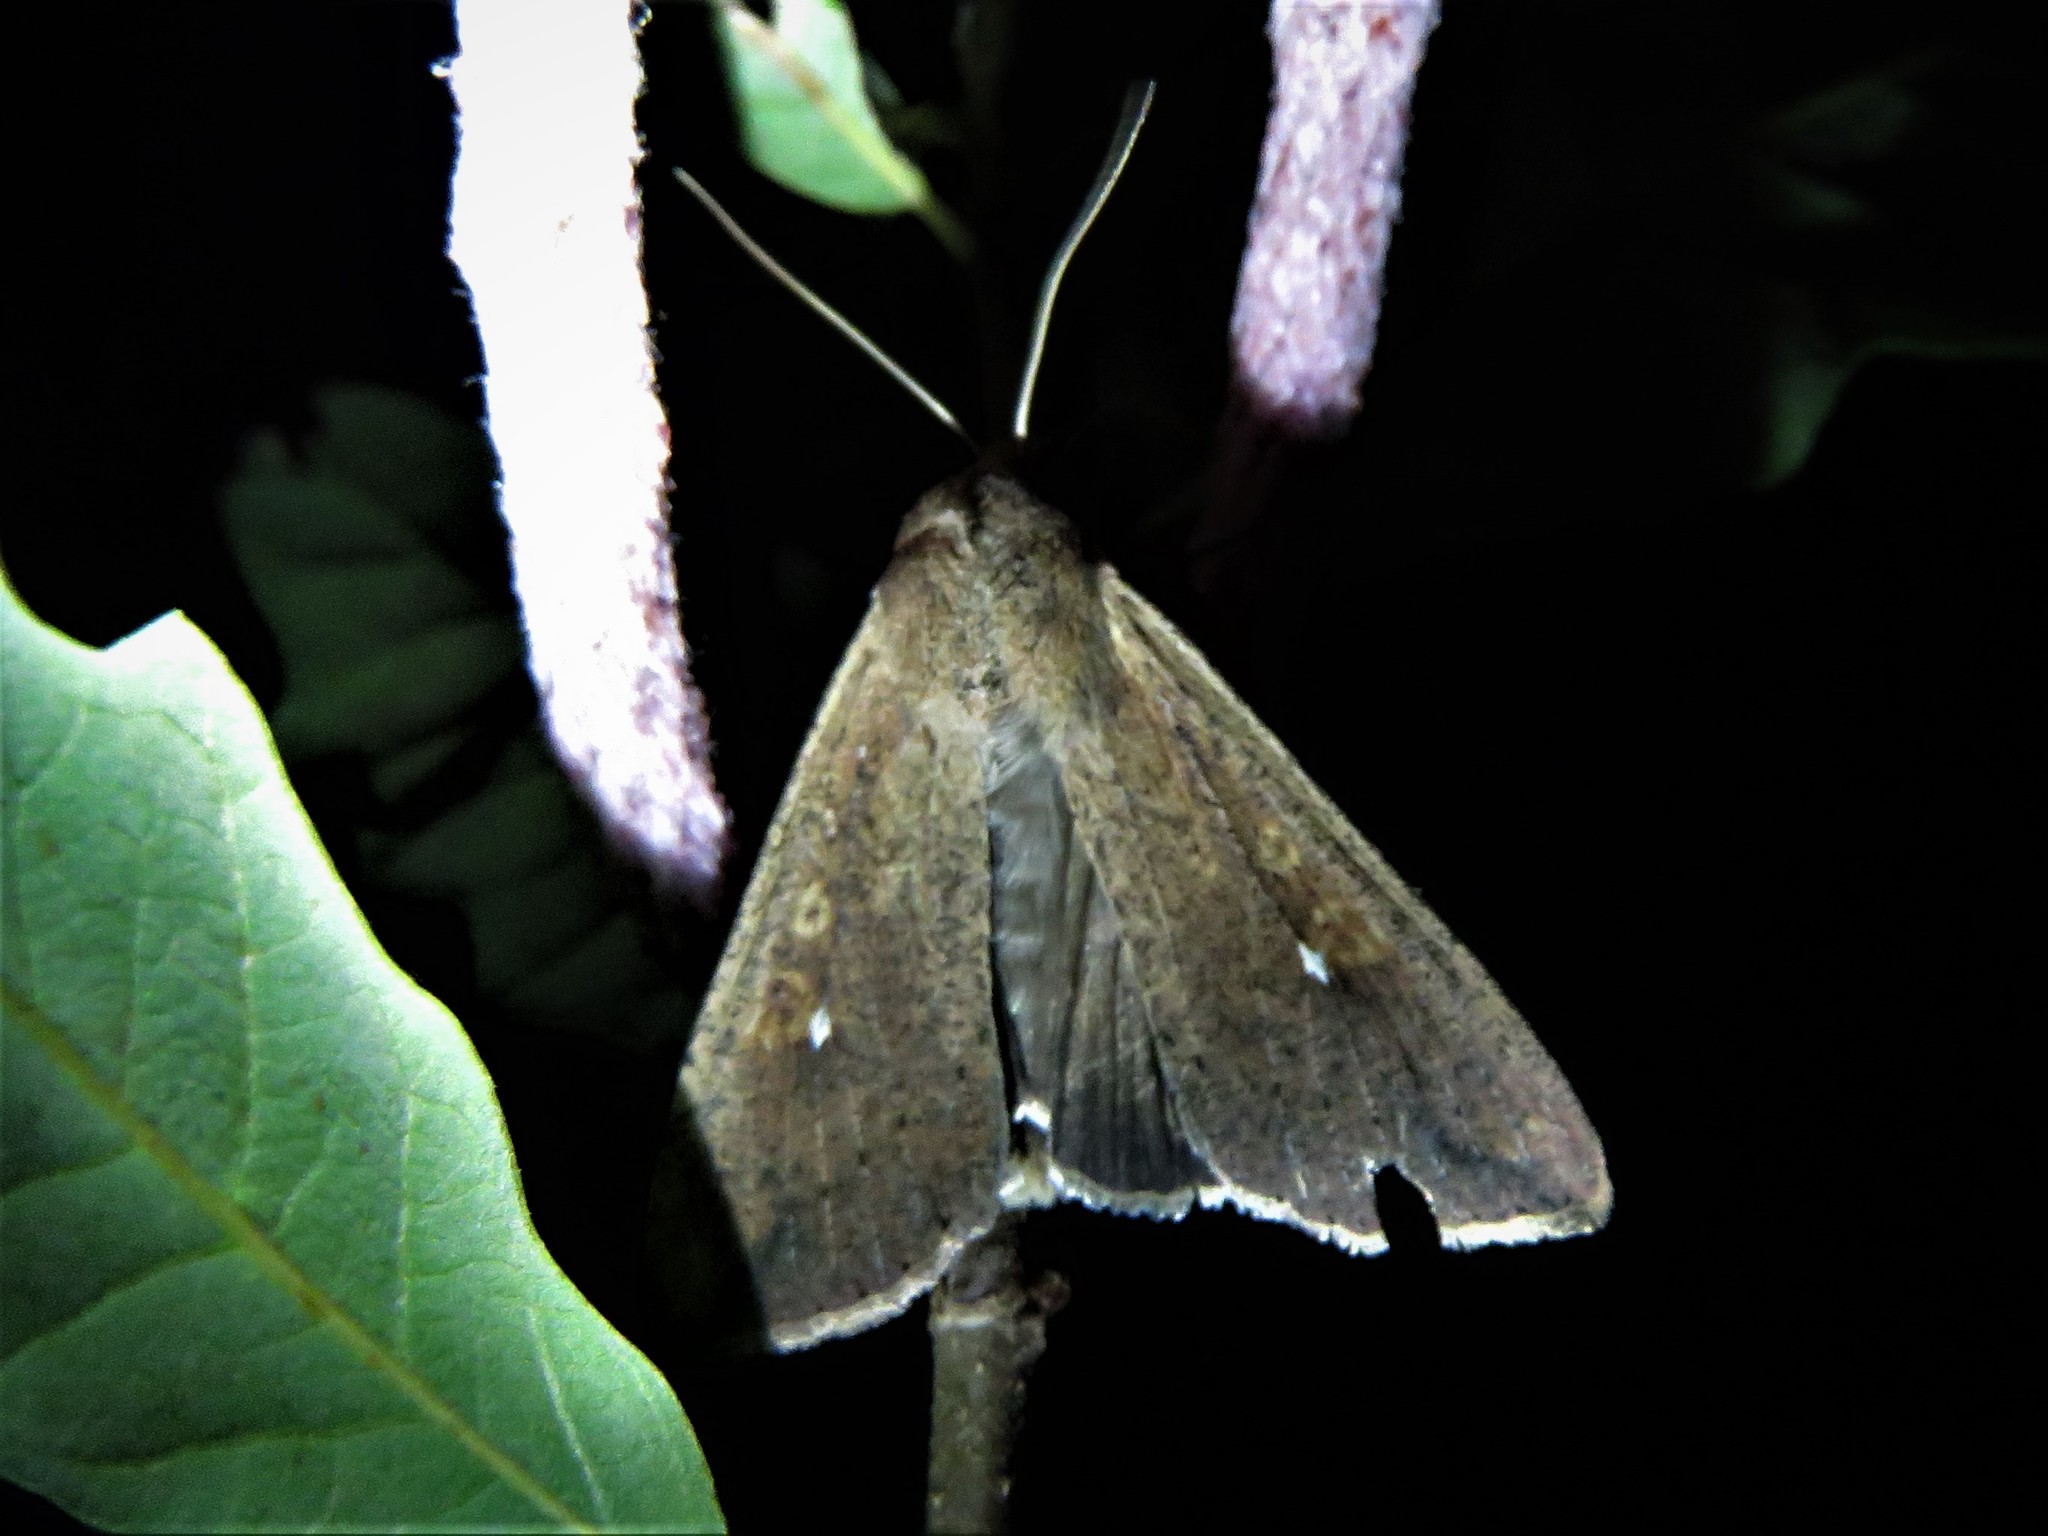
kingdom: Animalia
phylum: Arthropoda
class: Insecta
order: Lepidoptera
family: Noctuidae
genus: Mythimna
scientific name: Mythimna unipuncta
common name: White-speck
